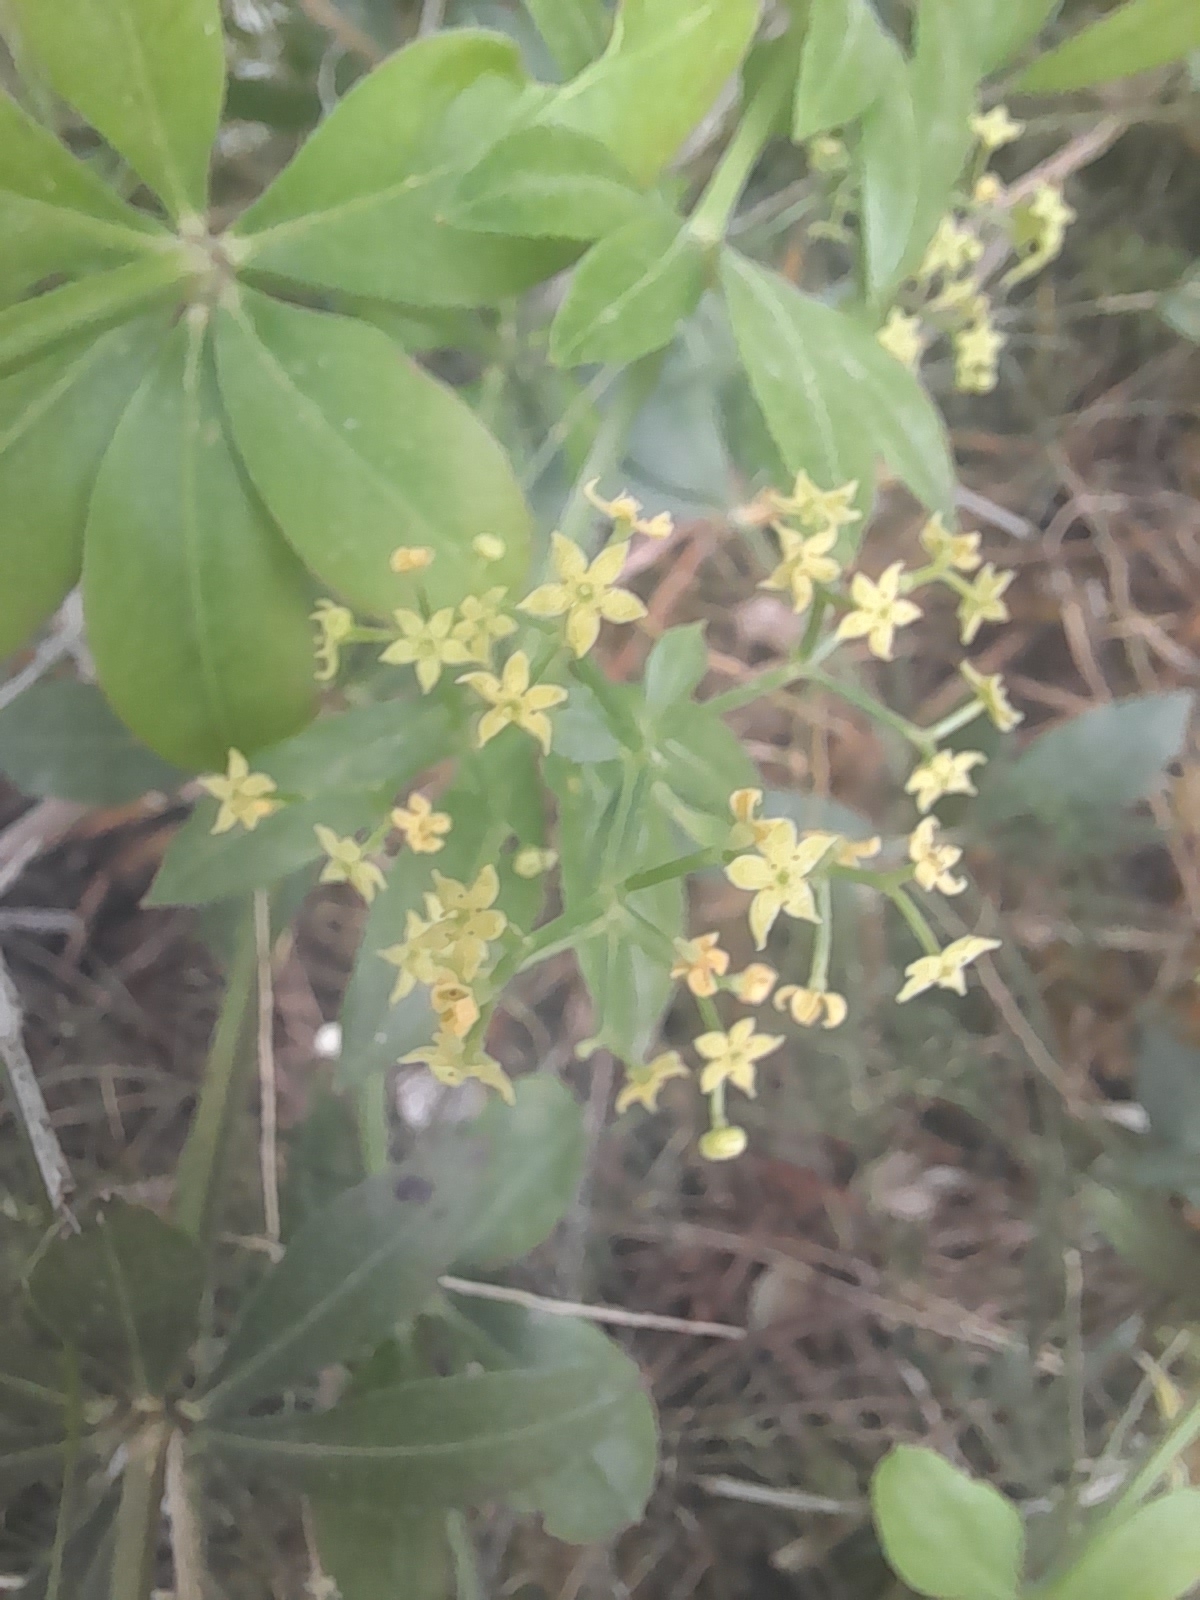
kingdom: Plantae
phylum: Tracheophyta
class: Magnoliopsida
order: Gentianales
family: Rubiaceae
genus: Rubia
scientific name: Rubia peregrina
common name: Wild madder
